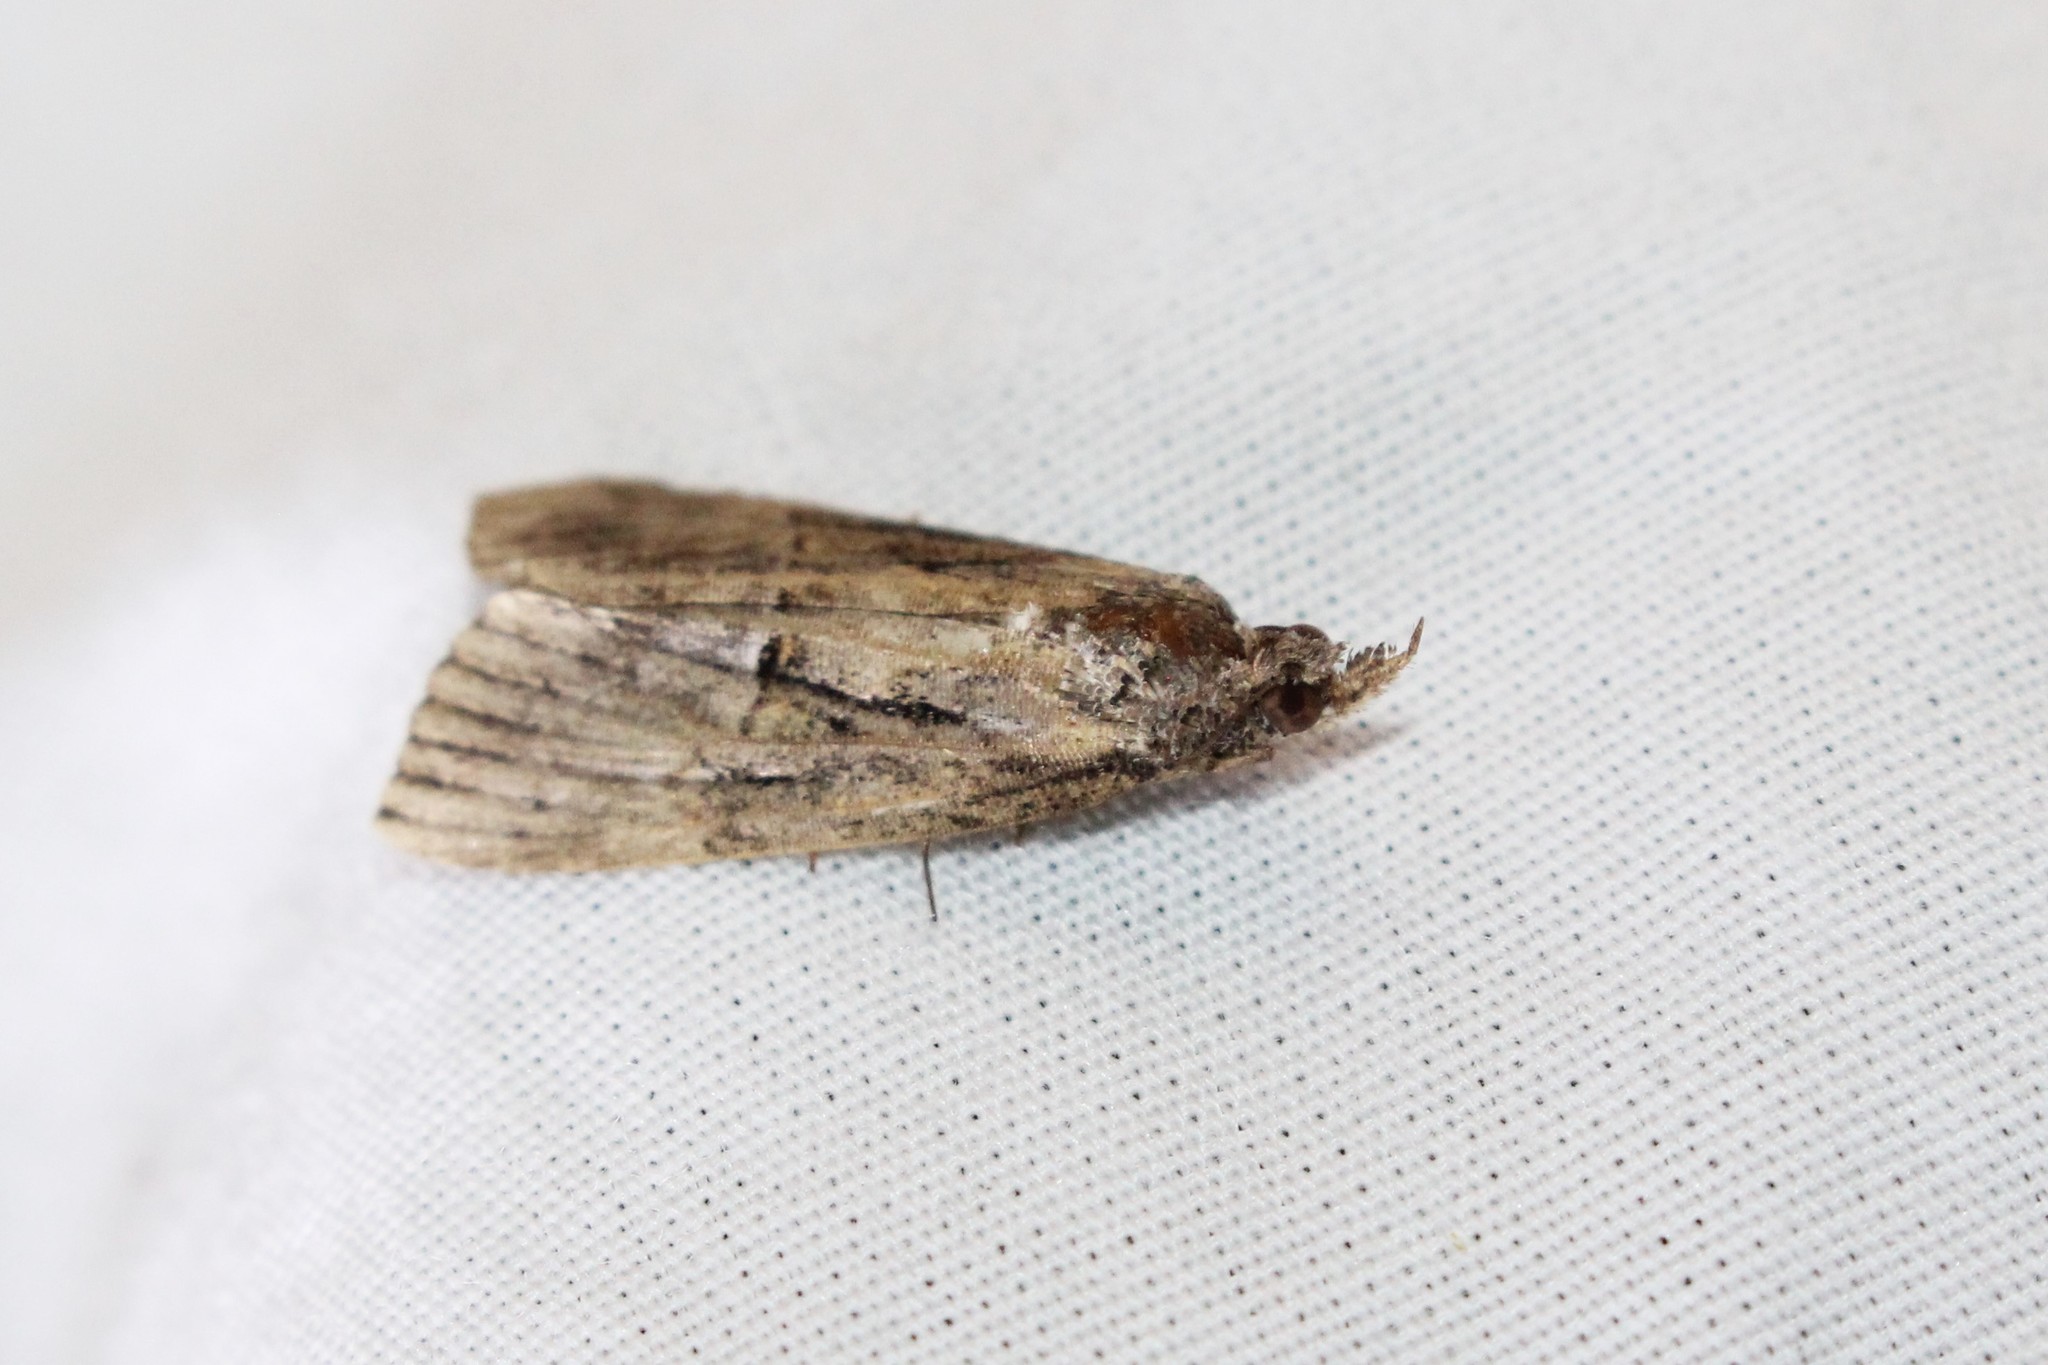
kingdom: Animalia
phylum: Arthropoda
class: Insecta
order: Lepidoptera
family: Erebidae
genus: Hypena
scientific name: Hypena scabra
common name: Green cloverworm
